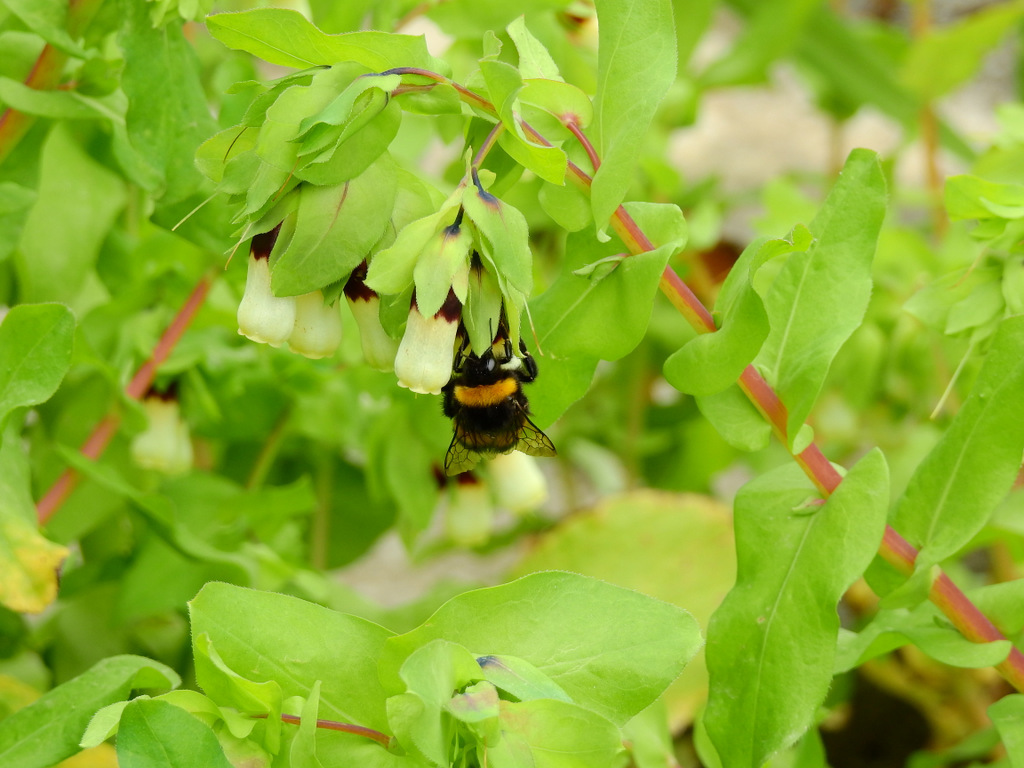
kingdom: Animalia
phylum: Arthropoda
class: Insecta
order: Hymenoptera
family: Apidae
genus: Bombus
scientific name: Bombus terrestris
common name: Buff-tailed bumblebee
